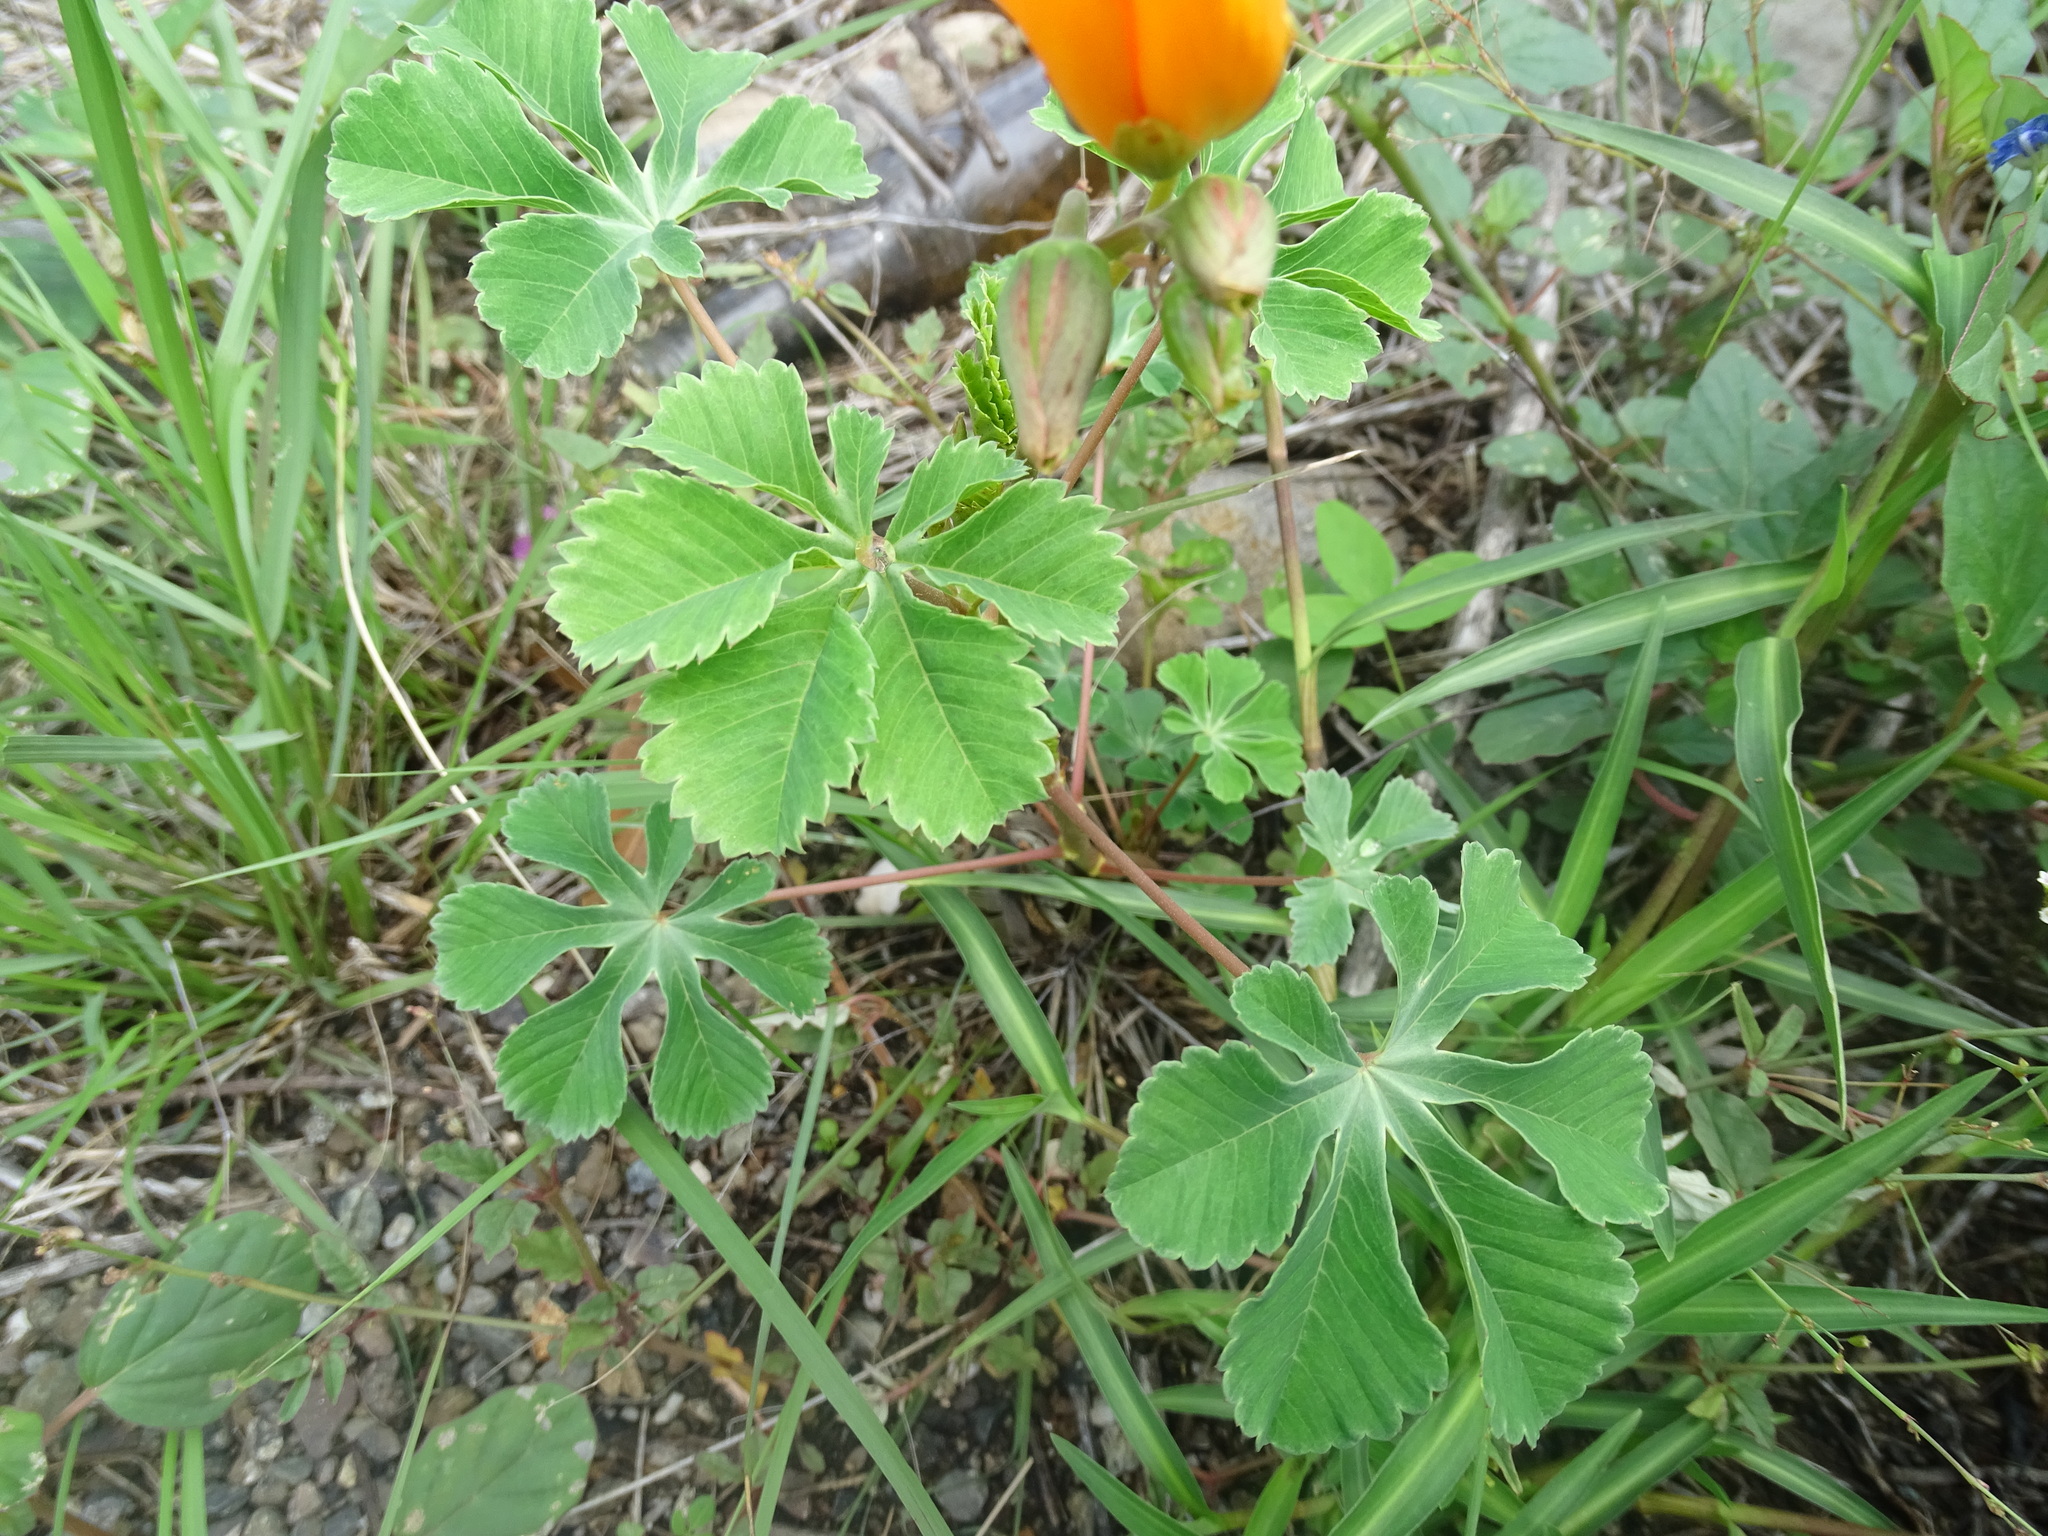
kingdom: Plantae
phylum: Tracheophyta
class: Magnoliopsida
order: Malvales
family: Cochlospermaceae
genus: Cochlospermum
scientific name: Cochlospermum wrightii
